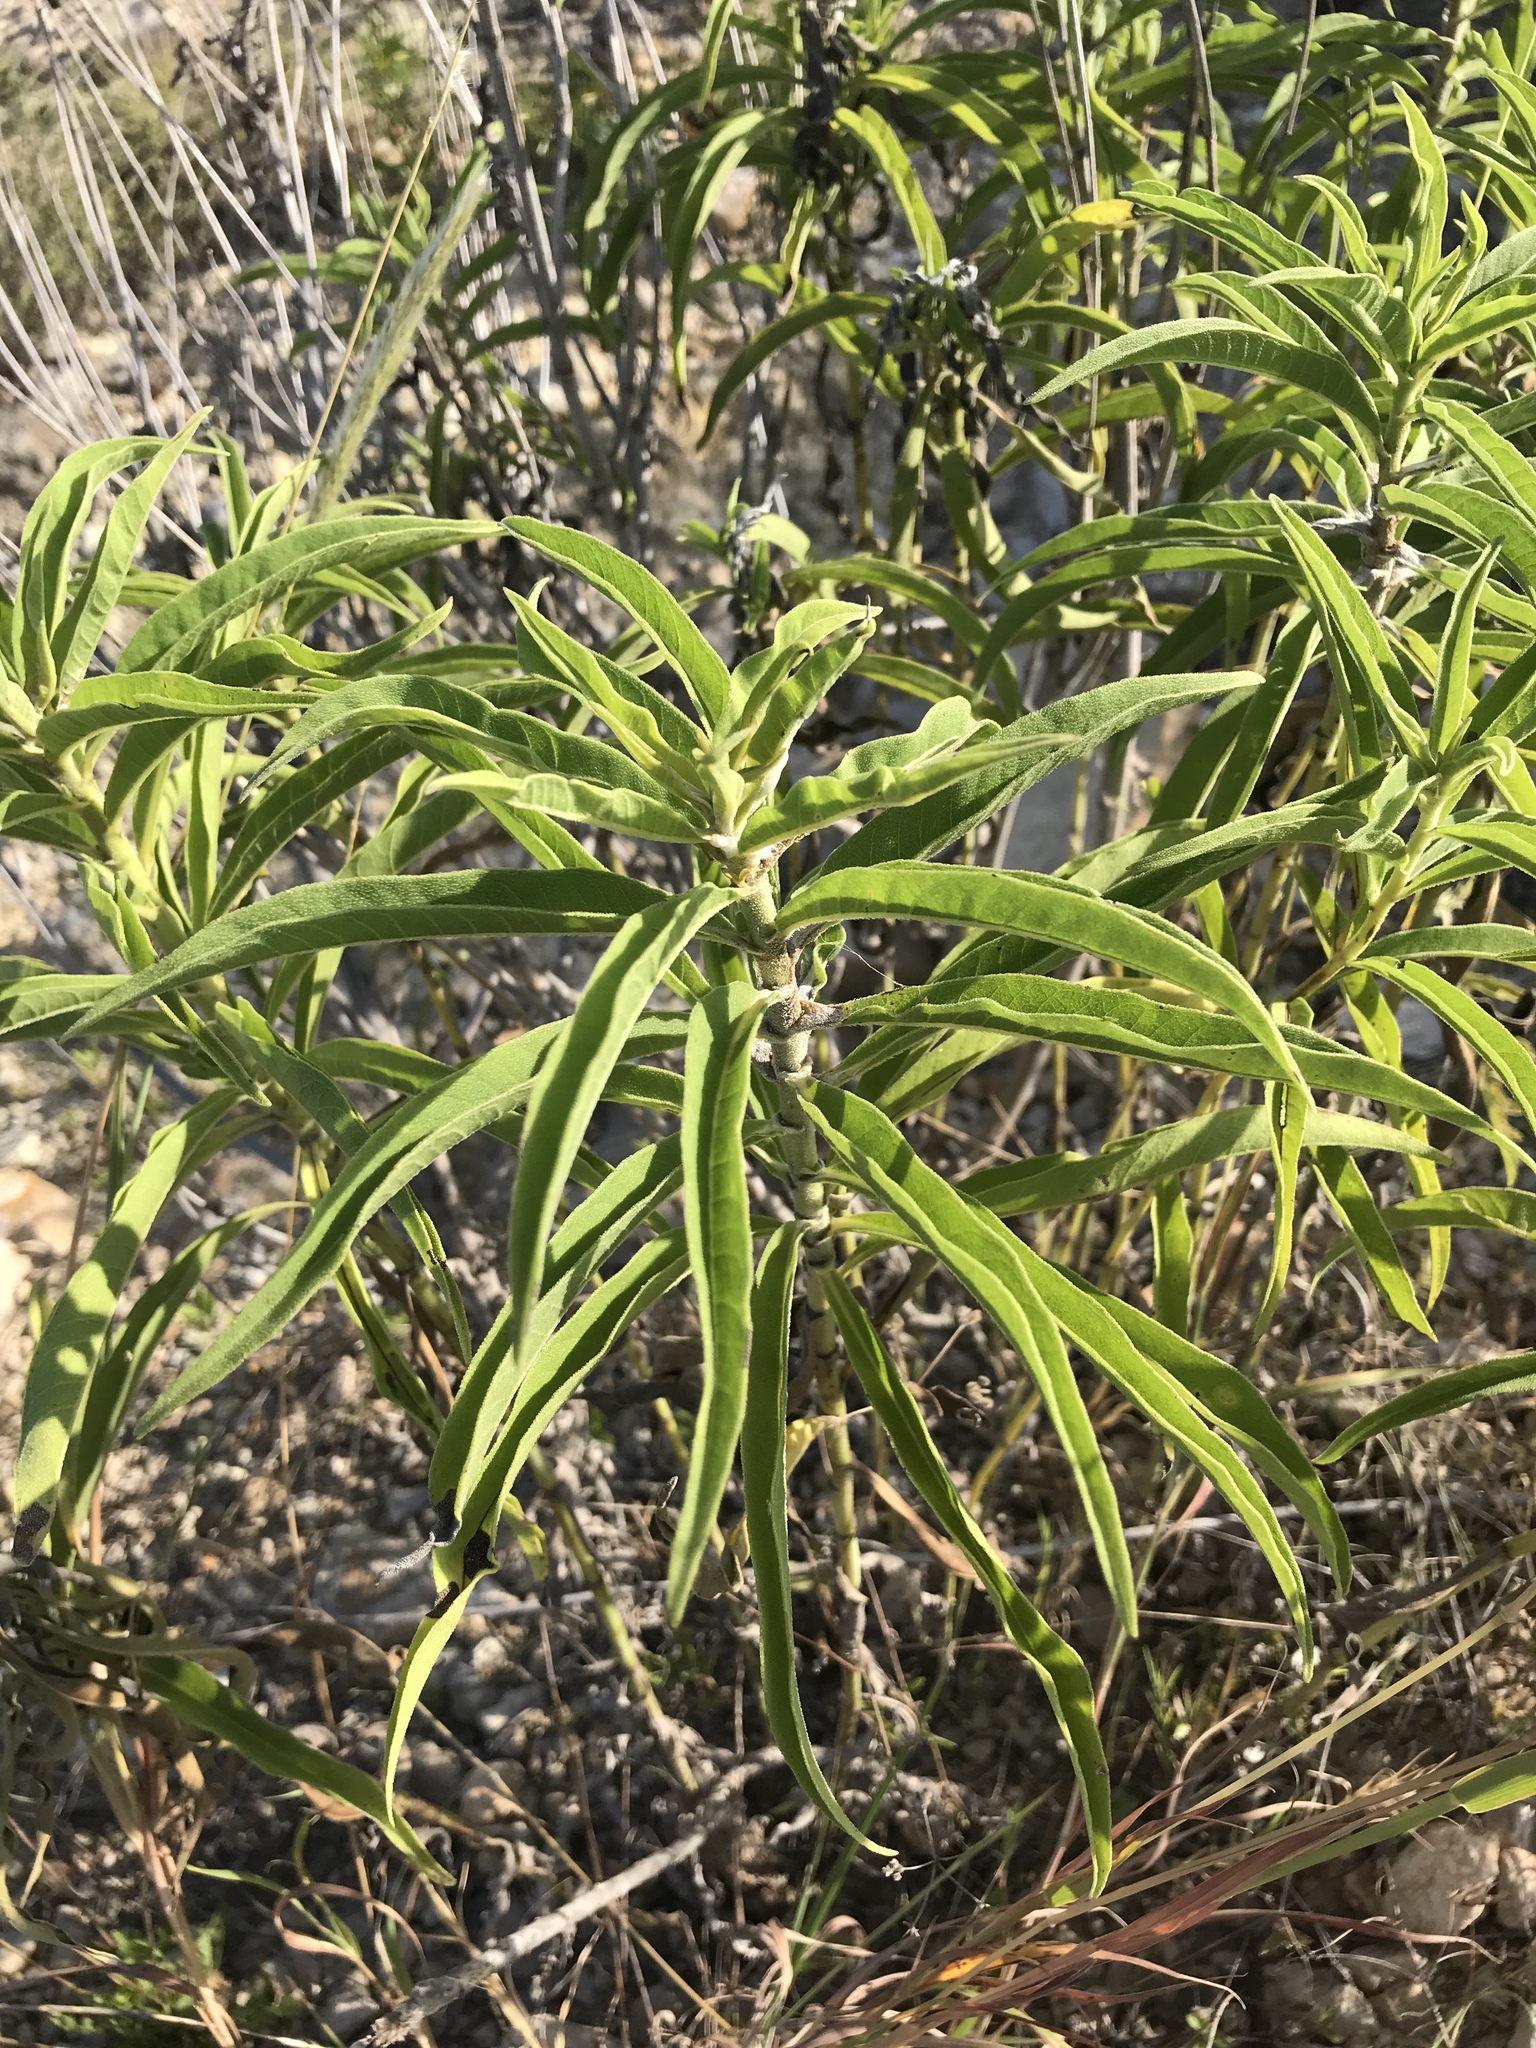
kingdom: Plantae
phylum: Tracheophyta
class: Magnoliopsida
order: Asterales
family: Asteraceae
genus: Helianthus
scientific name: Helianthus maximiliani
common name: Maximilian's sunflower
